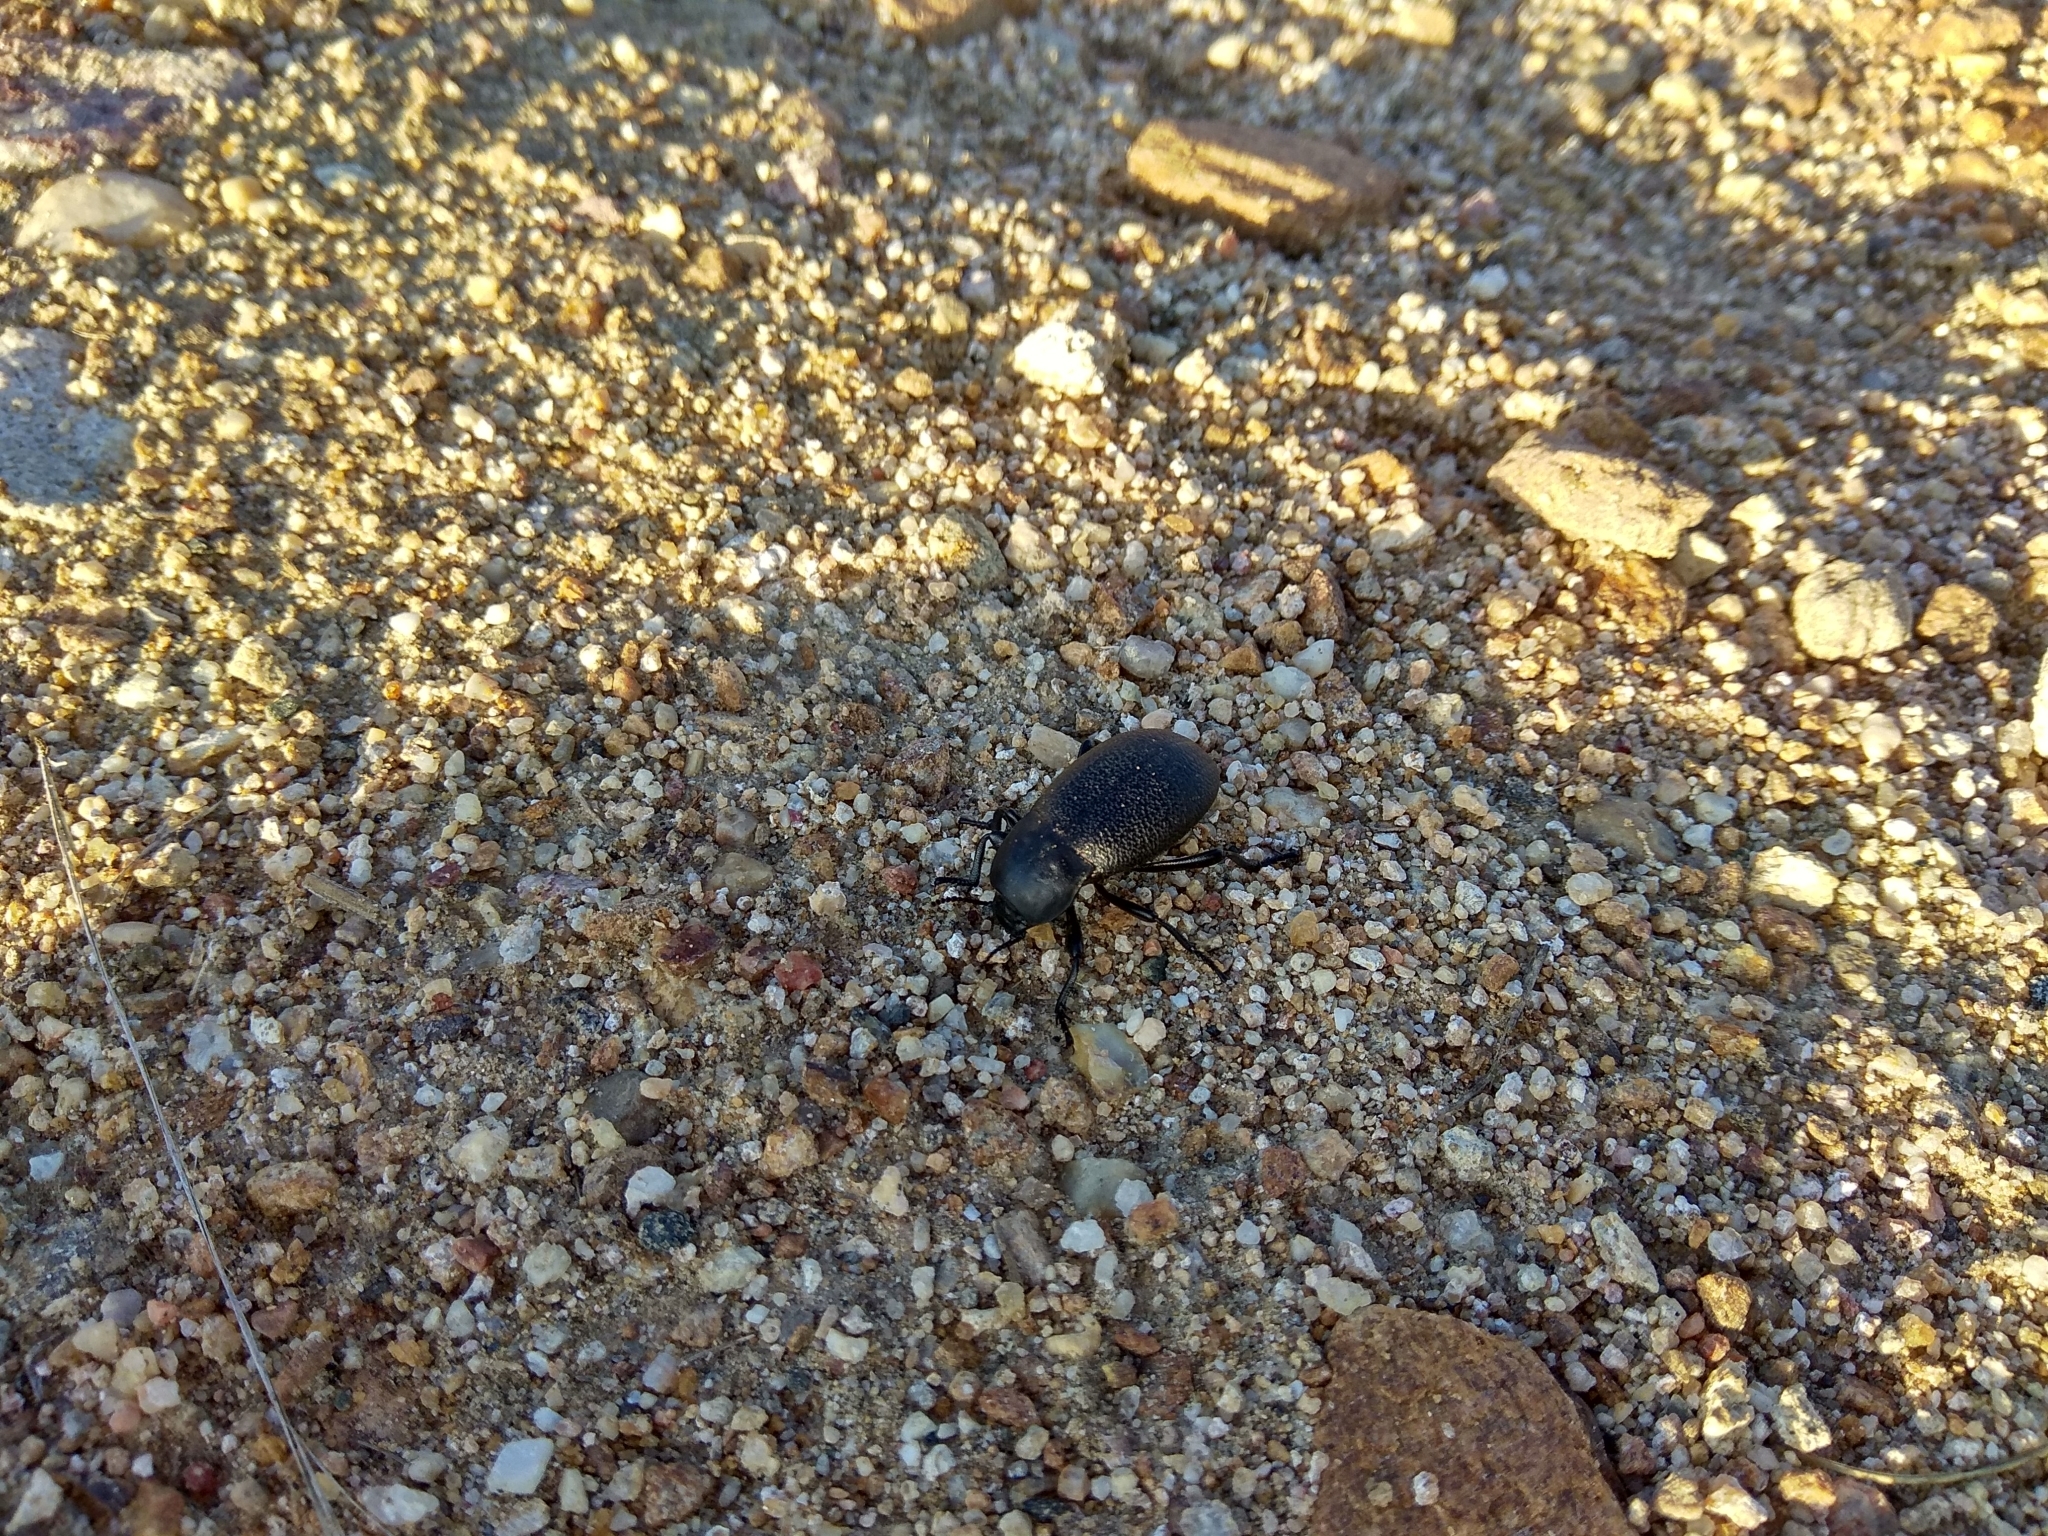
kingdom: Animalia
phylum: Arthropoda
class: Insecta
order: Coleoptera
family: Tenebrionidae
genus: Blaps
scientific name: Blaps
